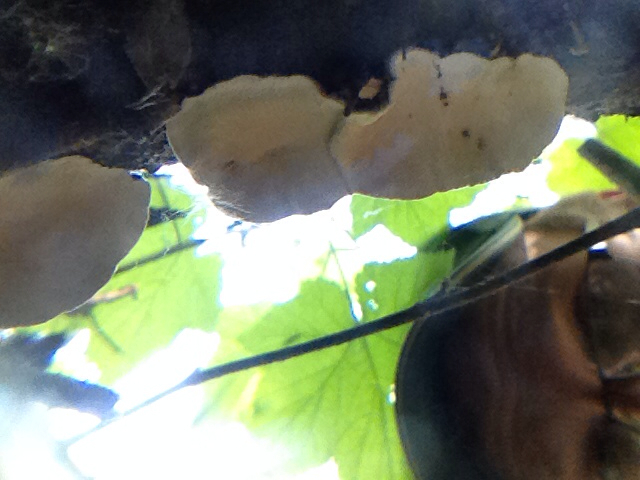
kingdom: Fungi
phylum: Basidiomycota
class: Agaricomycetes
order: Polyporales
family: Polyporaceae
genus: Trametes
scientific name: Trametes versicolor
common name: Turkeytail
